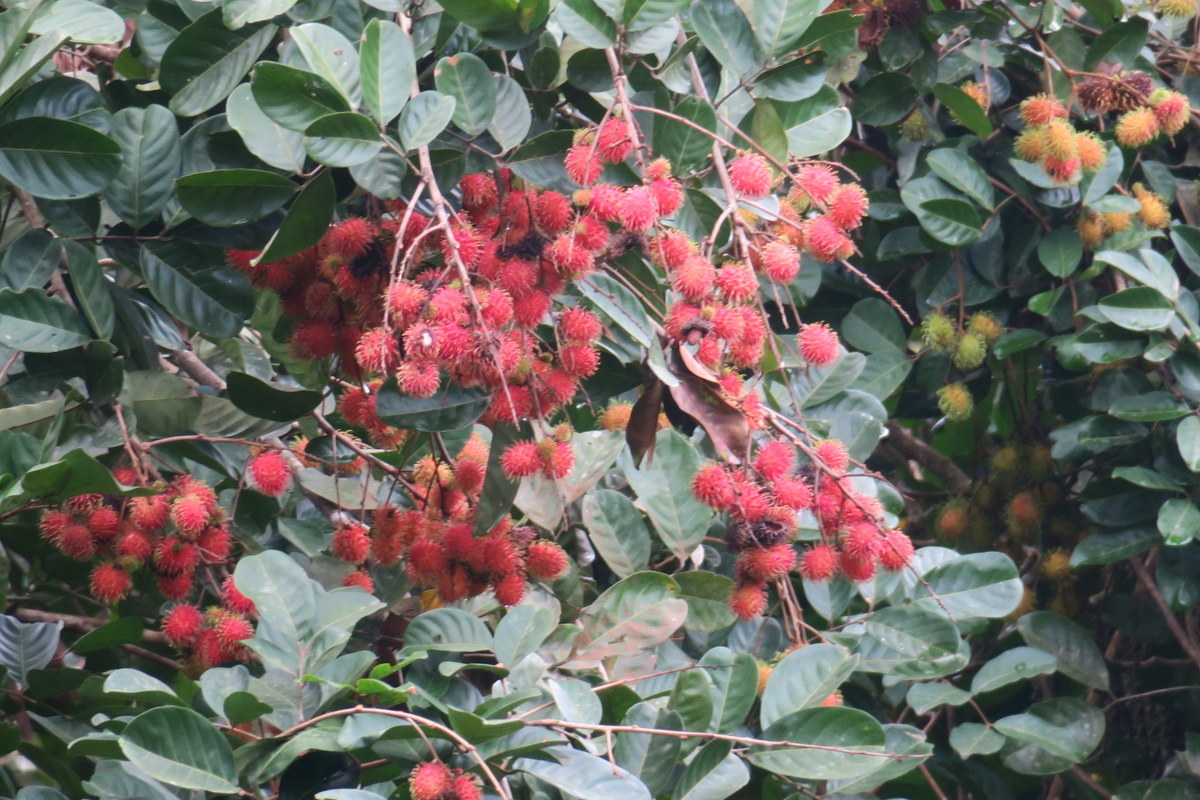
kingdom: Plantae
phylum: Tracheophyta
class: Magnoliopsida
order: Sapindales
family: Sapindaceae
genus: Nephelium
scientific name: Nephelium lappaceum
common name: Rambutan
